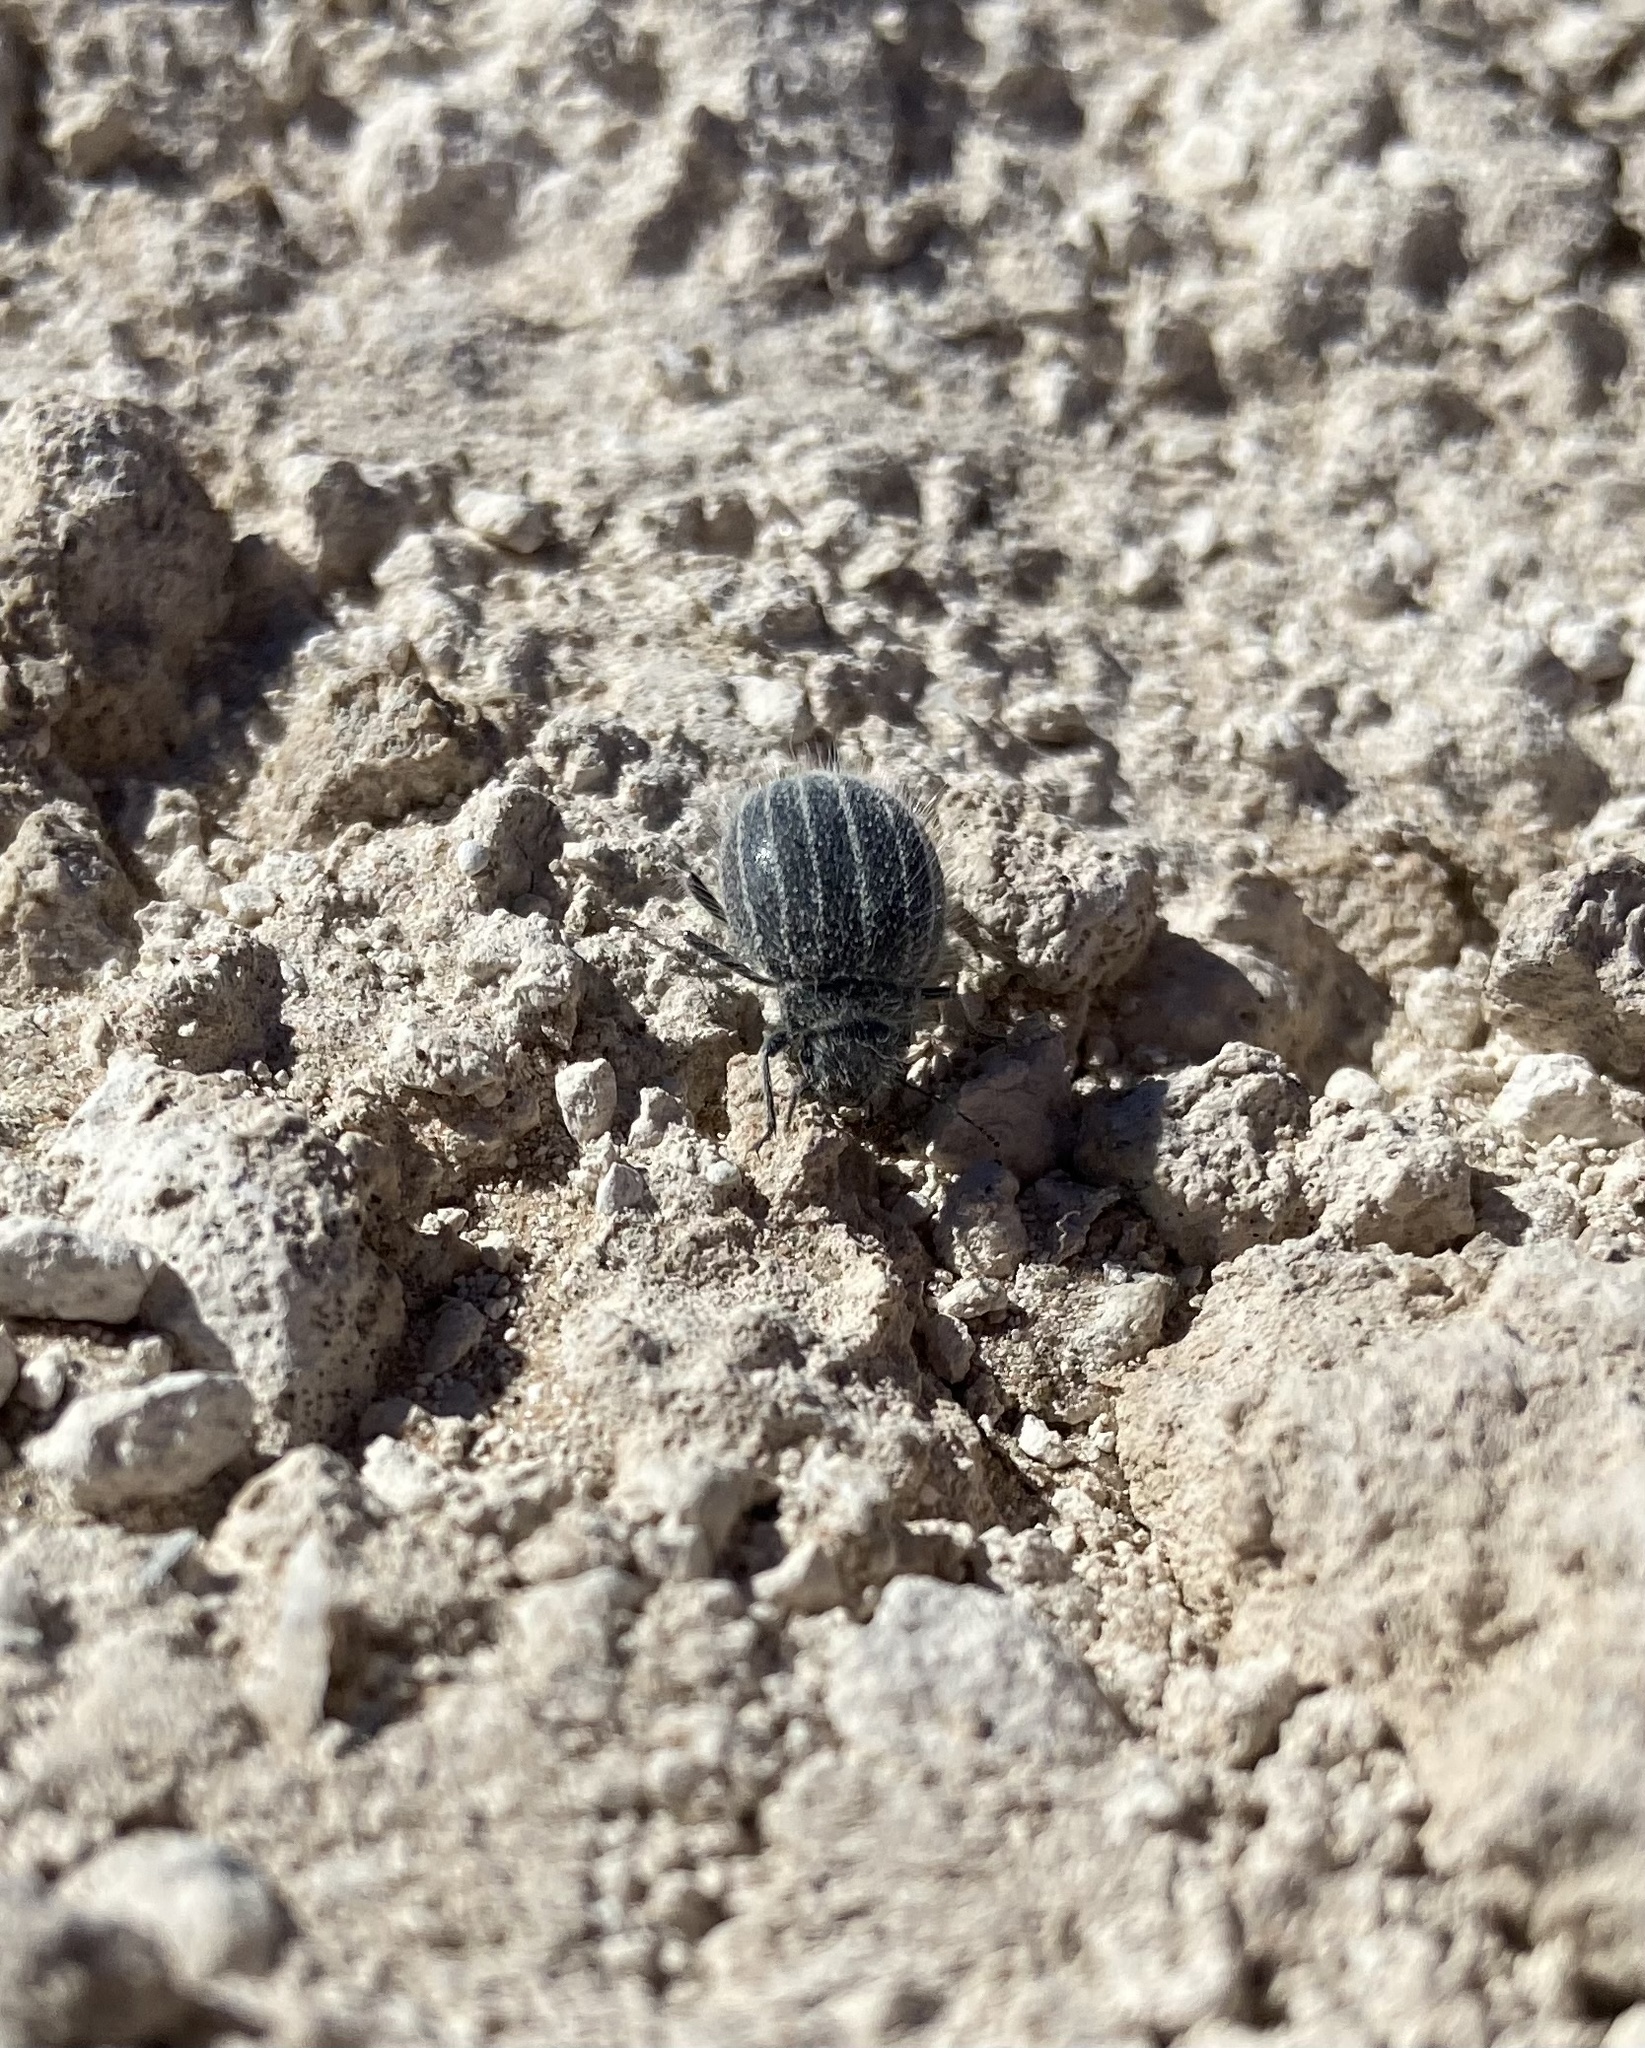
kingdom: Animalia
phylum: Arthropoda
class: Insecta
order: Coleoptera
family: Tenebrionidae
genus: Edrotes
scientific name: Edrotes ventricosus
